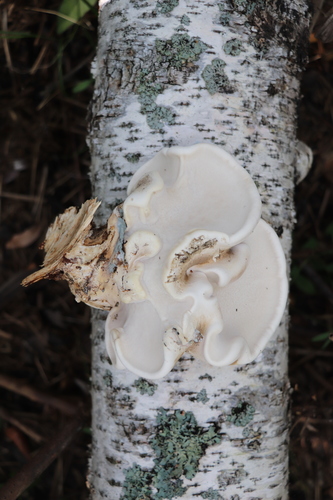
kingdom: Fungi
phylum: Basidiomycota
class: Agaricomycetes
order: Polyporales
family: Fomitopsidaceae
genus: Fomitopsis
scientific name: Fomitopsis betulina
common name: Birch polypore
